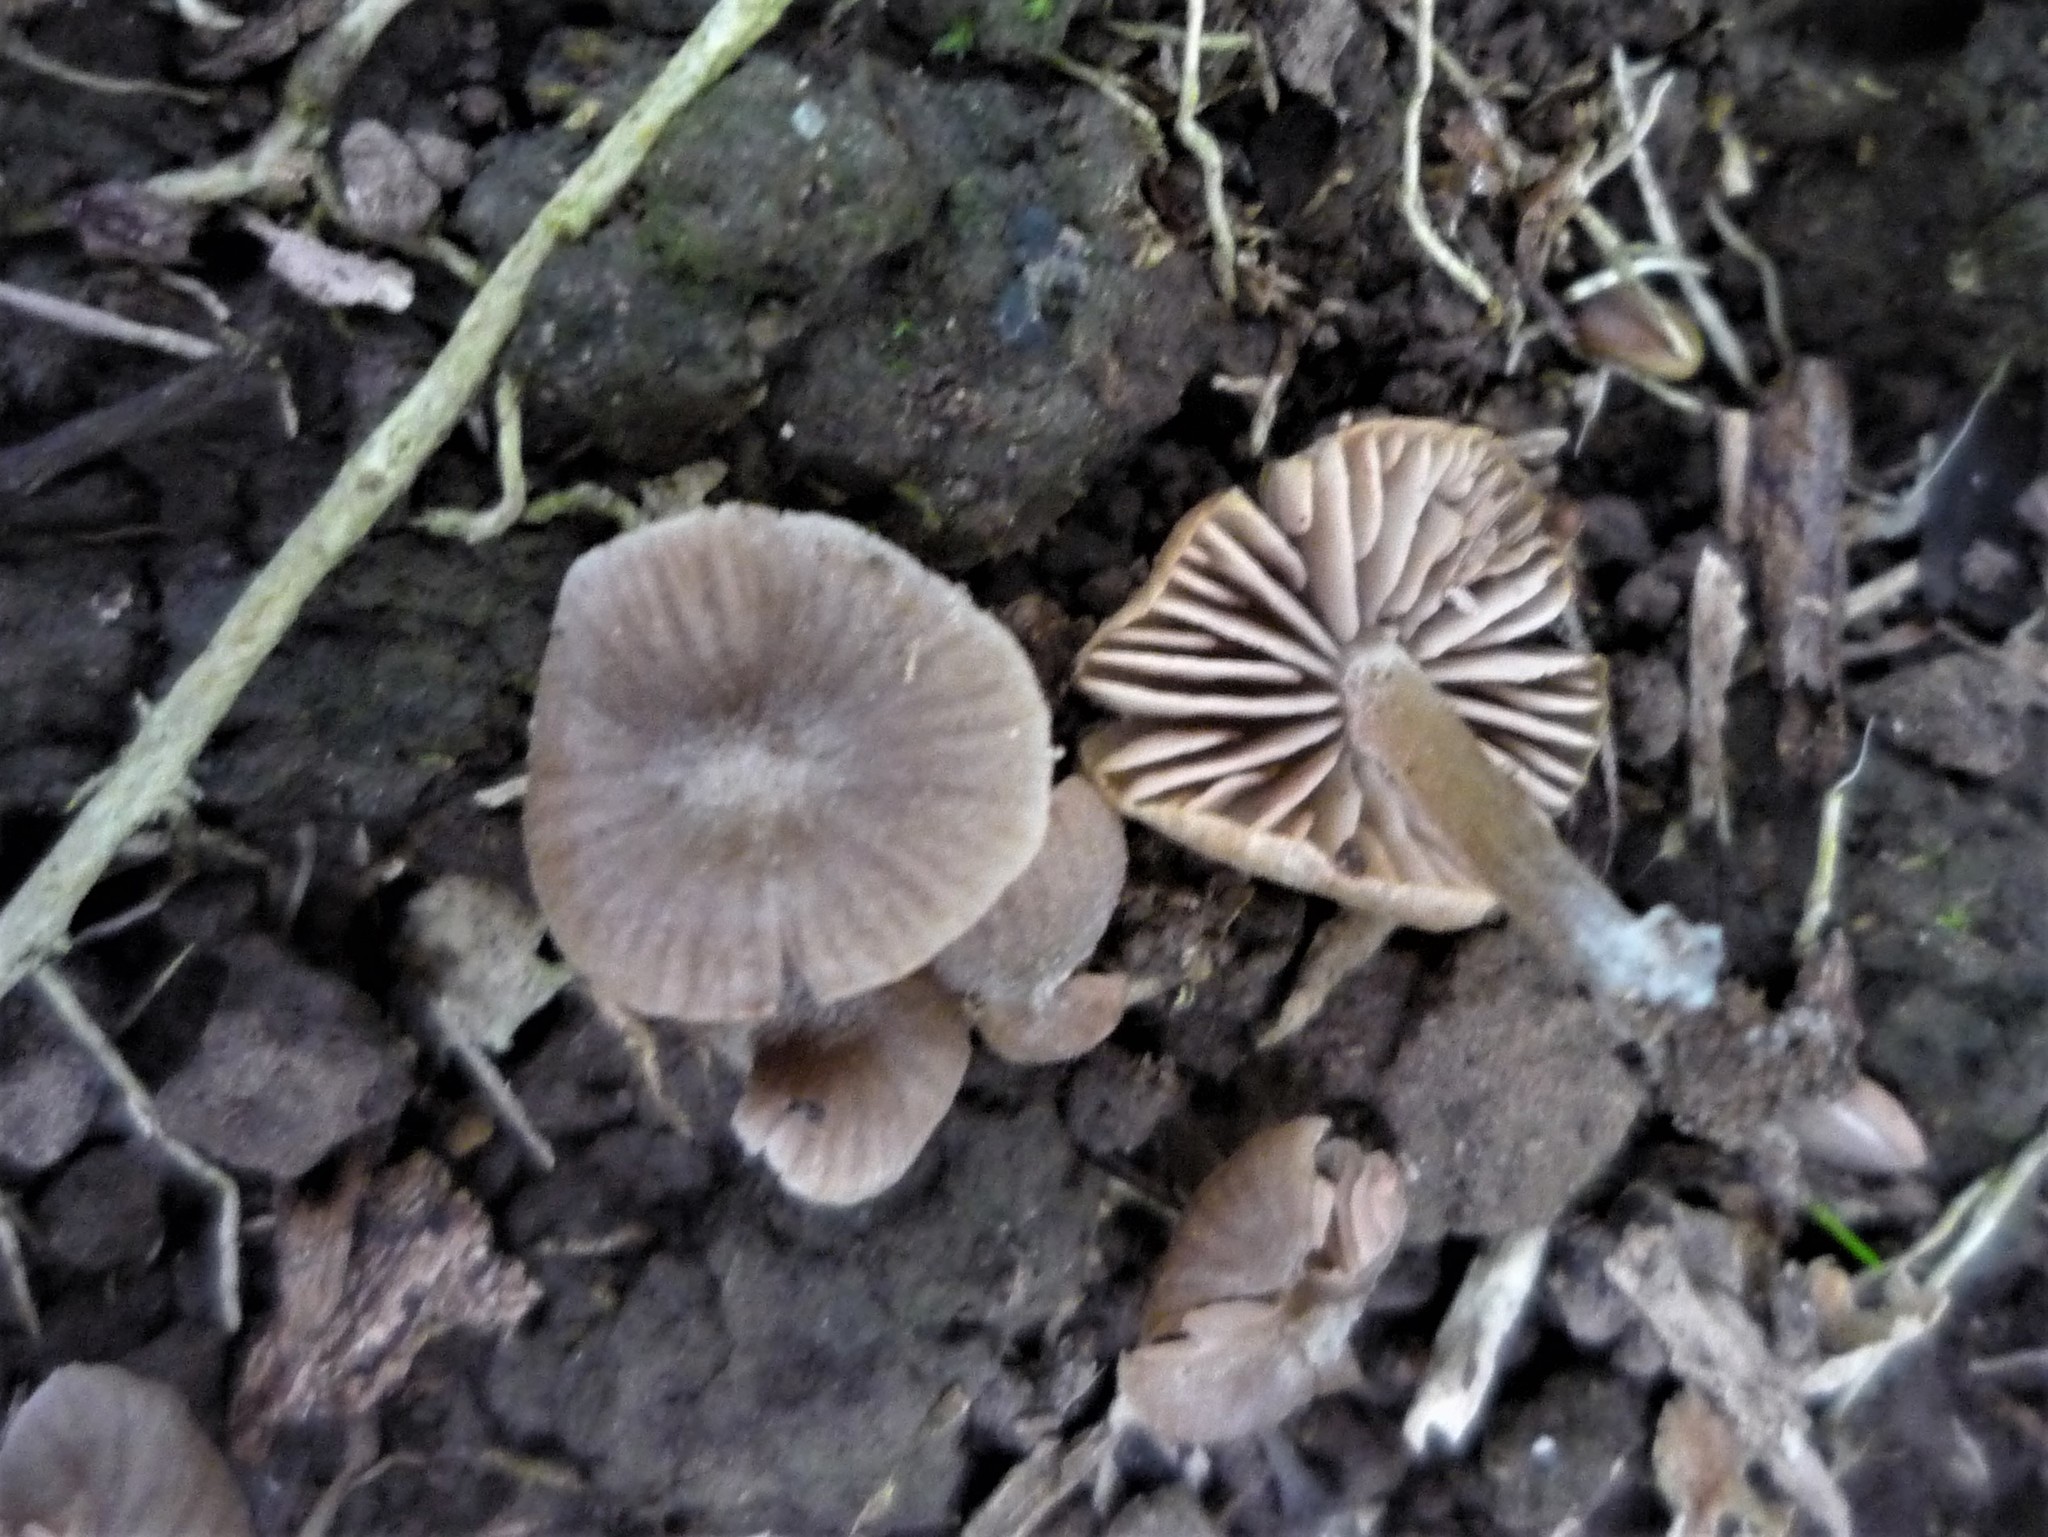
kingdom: Fungi
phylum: Basidiomycota
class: Agaricomycetes
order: Agaricales
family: Entolomataceae
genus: Entoloma
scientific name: Entoloma
